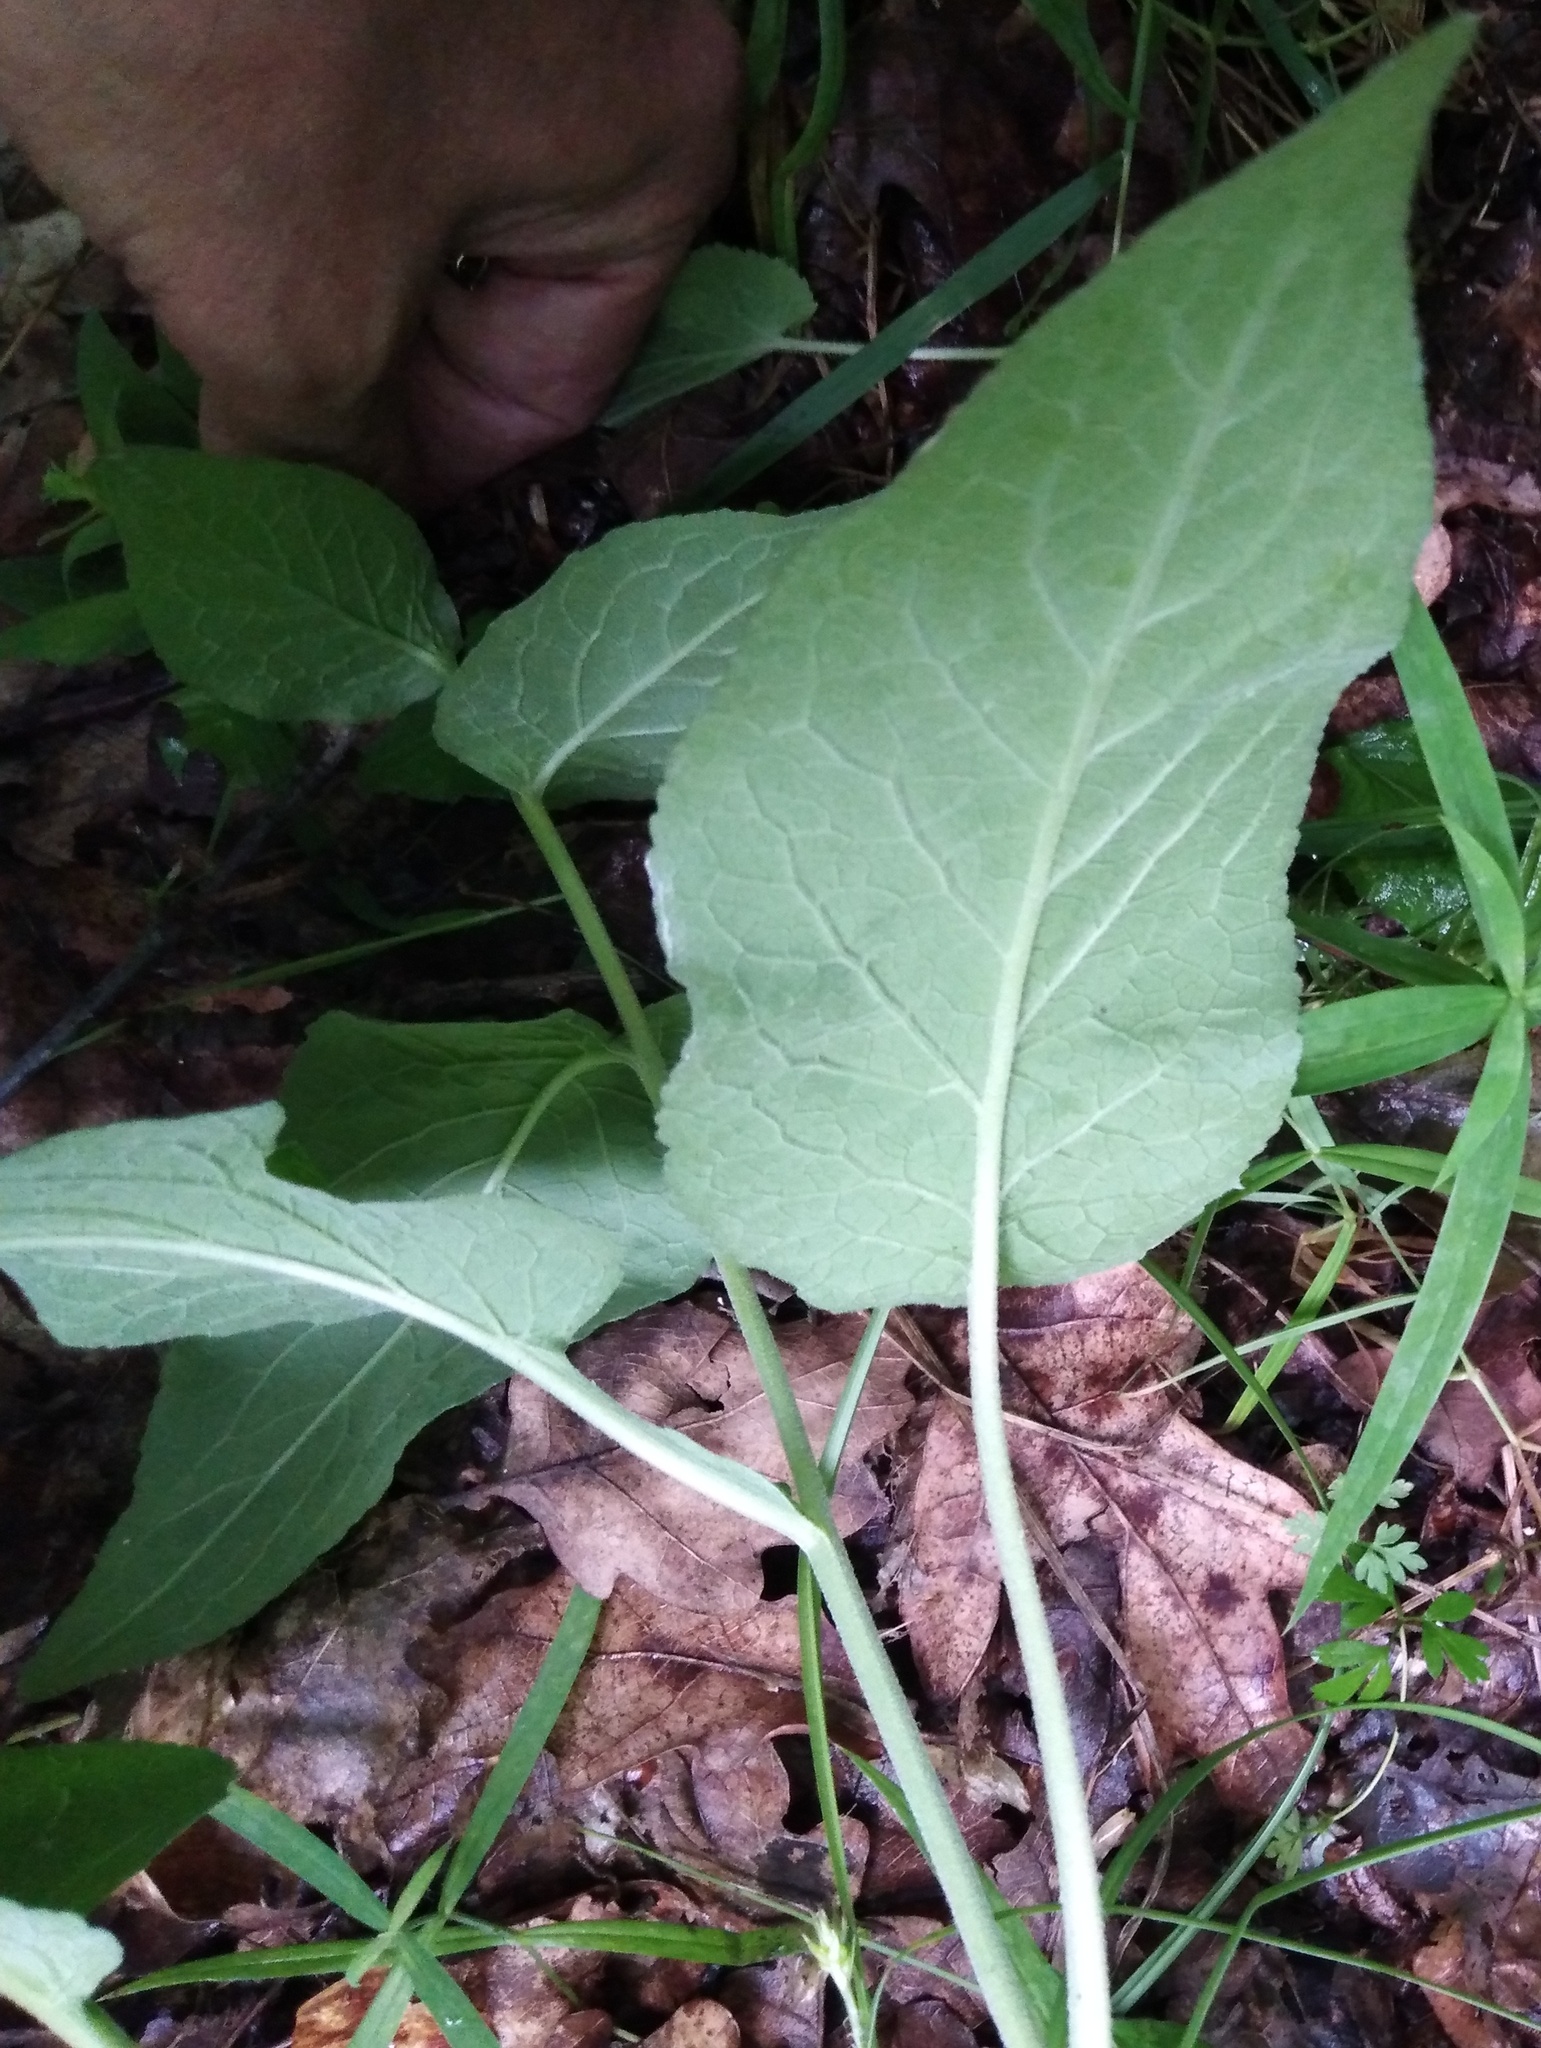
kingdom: Plantae
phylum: Tracheophyta
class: Magnoliopsida
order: Asterales
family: Campanulaceae
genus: Campanula
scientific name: Campanula bononiensis
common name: Pale bellflower
